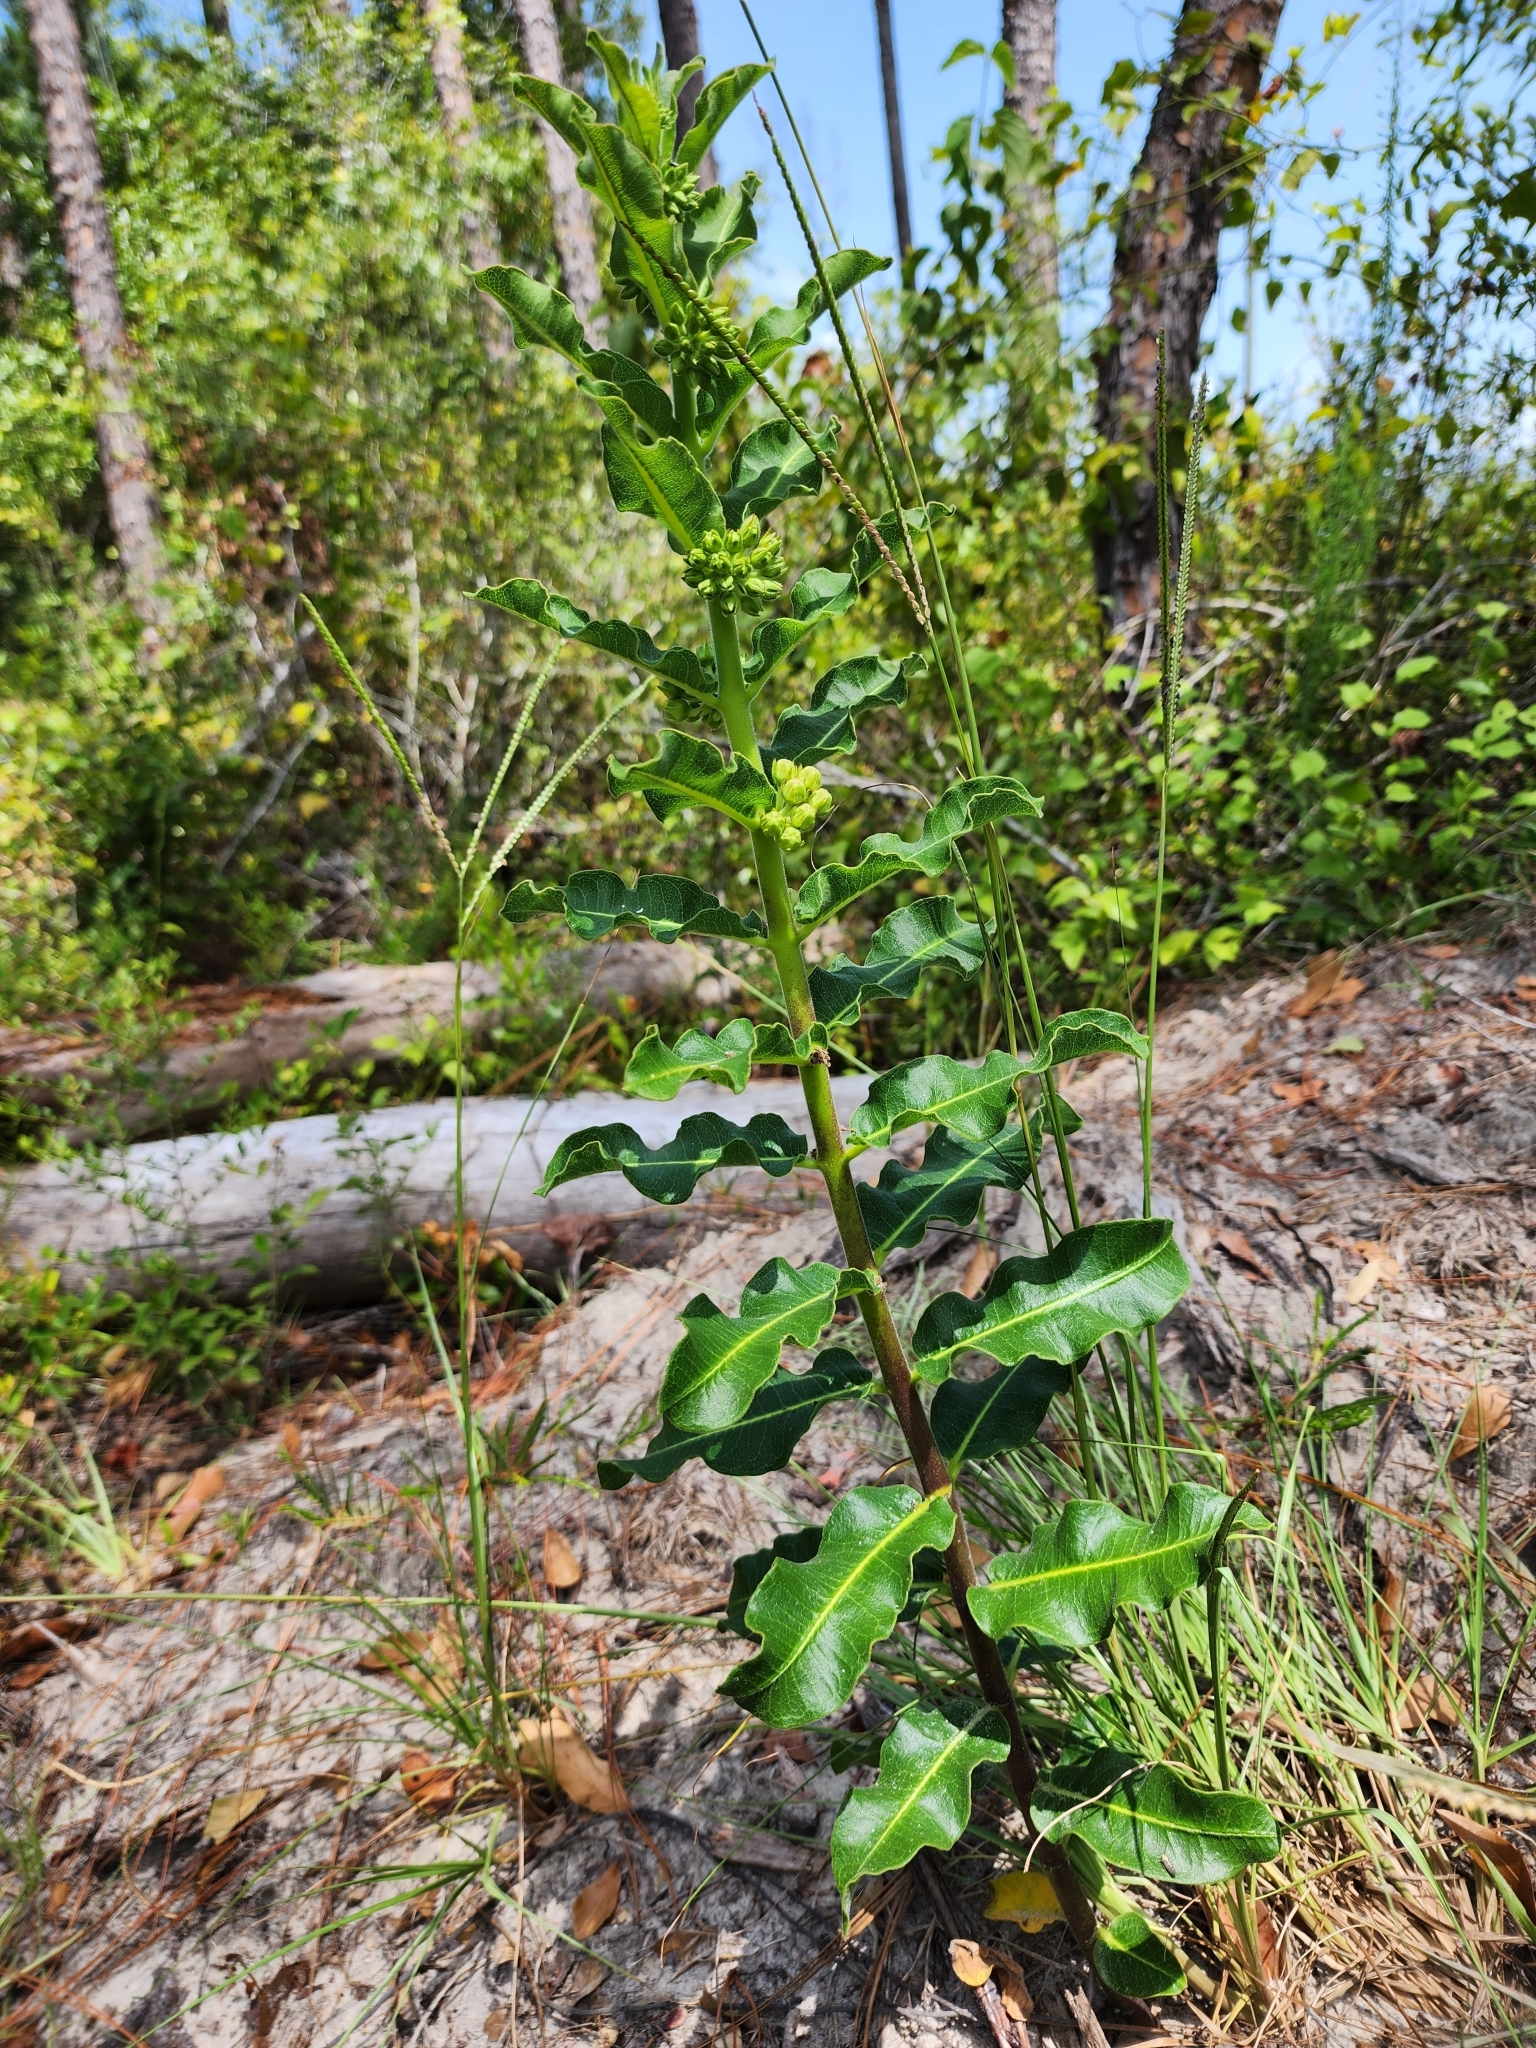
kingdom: Plantae
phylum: Tracheophyta
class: Magnoliopsida
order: Gentianales
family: Apocynaceae
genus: Asclepias
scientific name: Asclepias obovata
